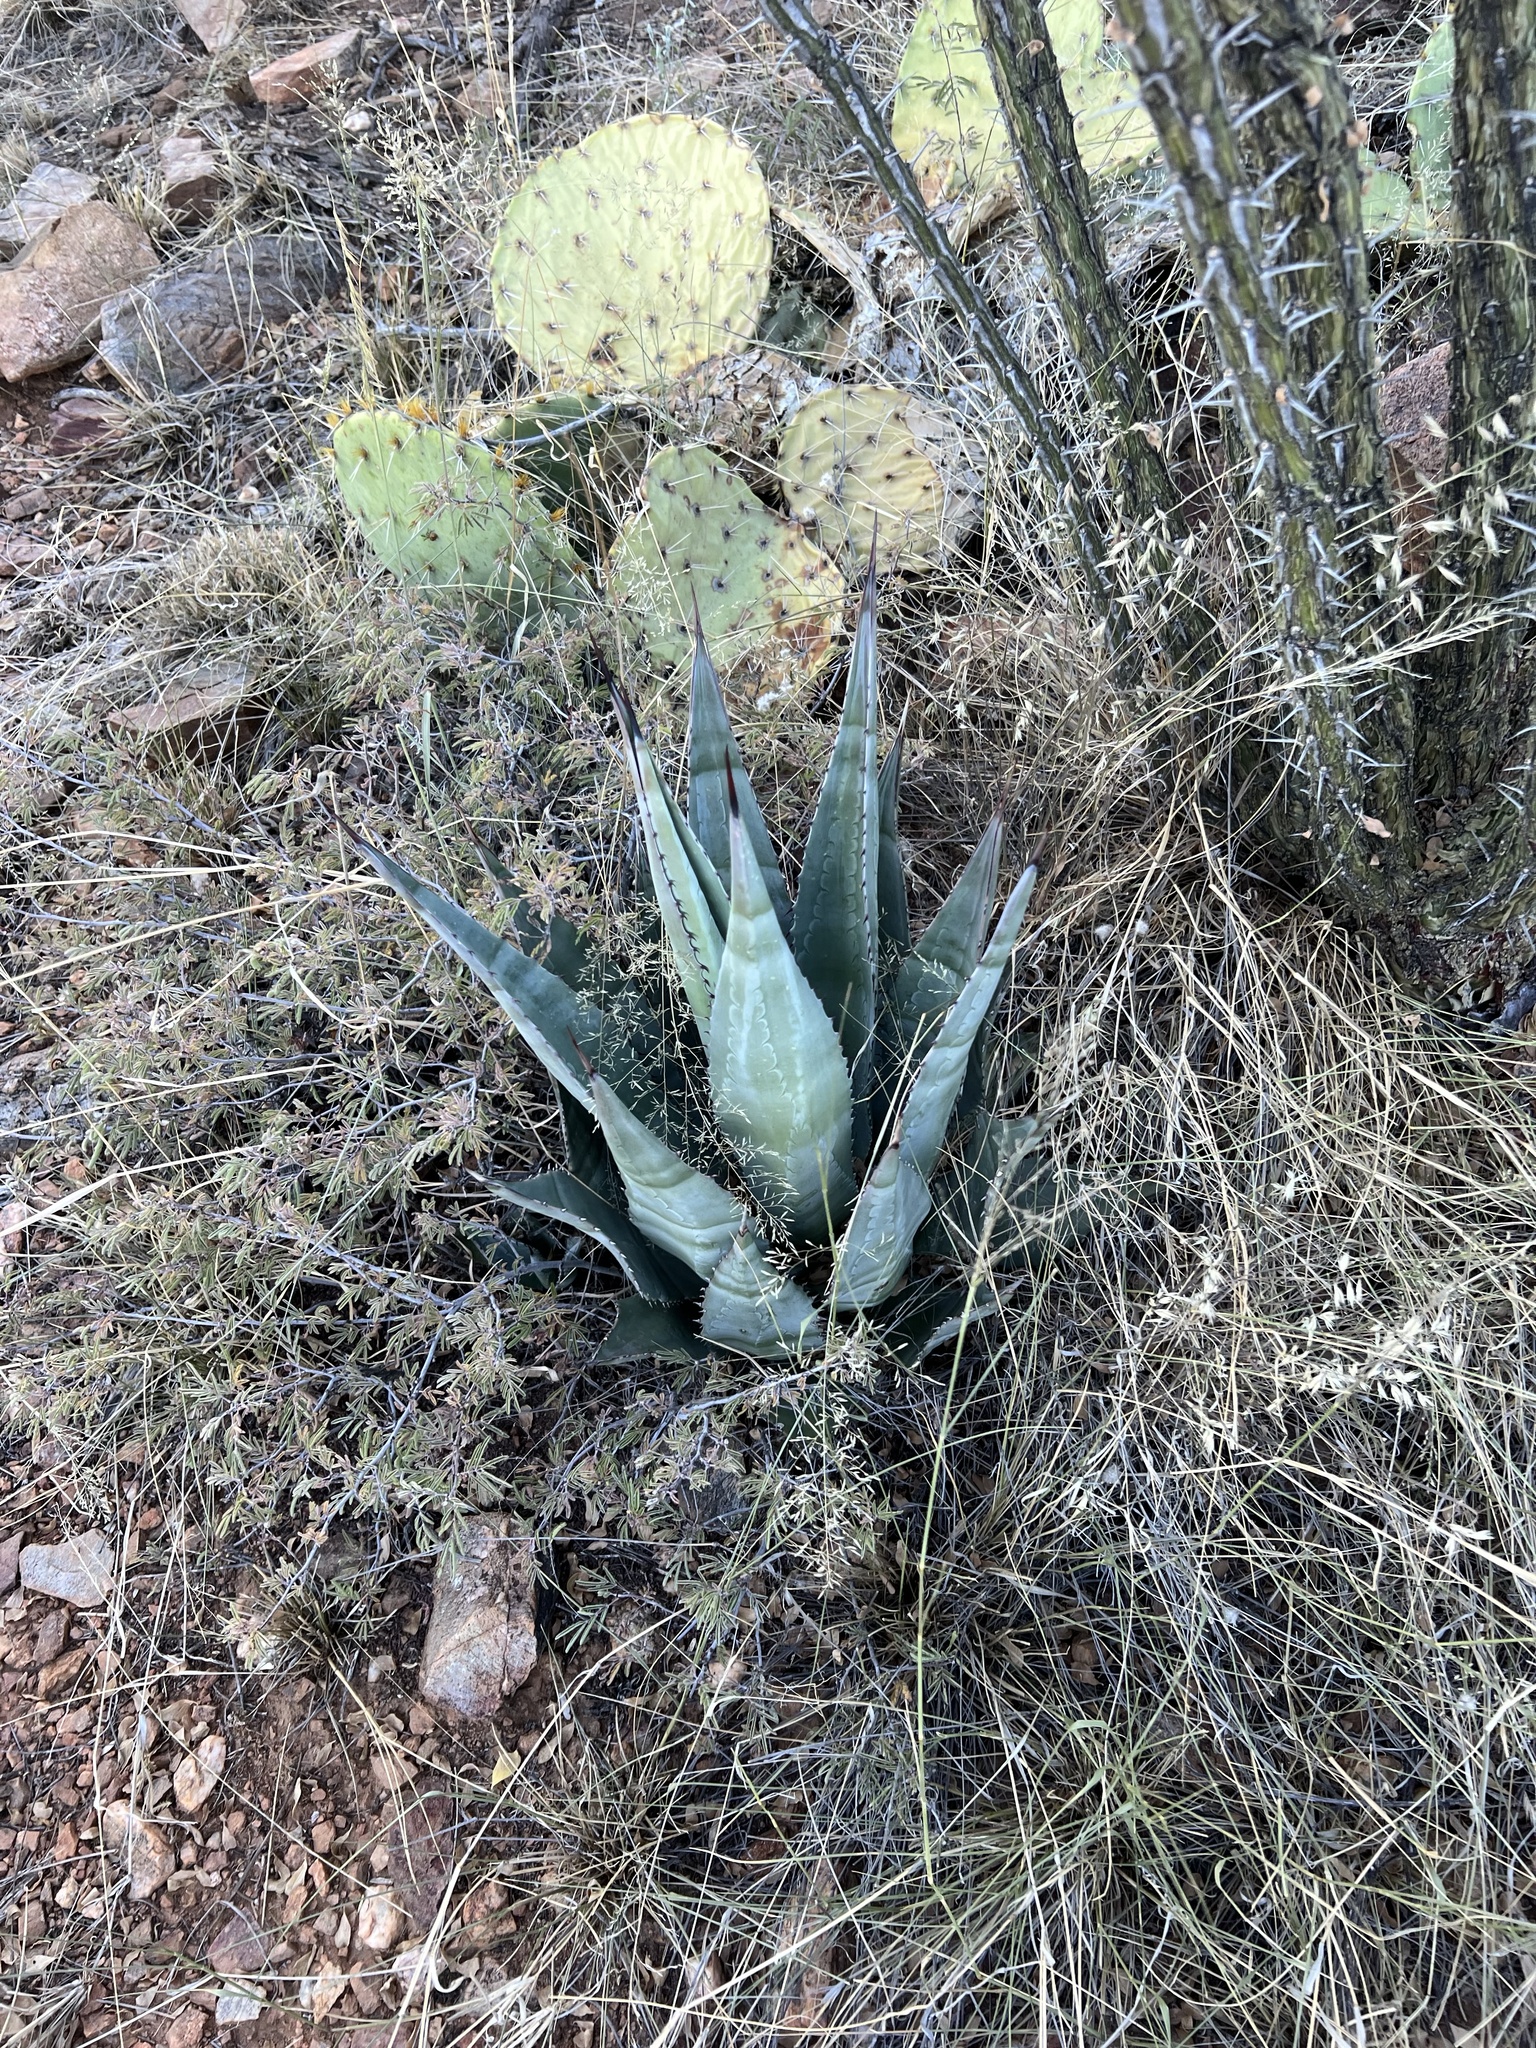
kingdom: Plantae
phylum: Tracheophyta
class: Liliopsida
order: Asparagales
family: Asparagaceae
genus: Agave
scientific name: Agave palmeri
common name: Palmer agave
